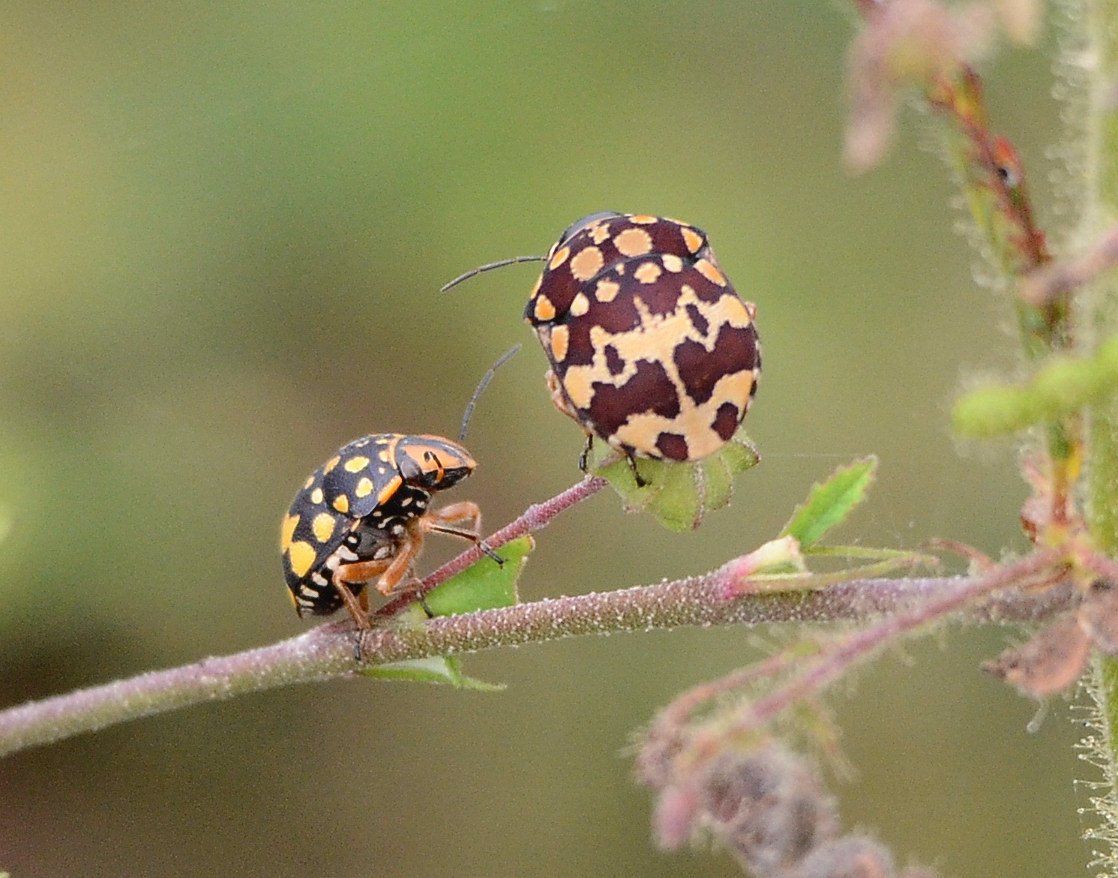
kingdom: Animalia
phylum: Arthropoda
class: Insecta
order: Hemiptera
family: Scutelleridae
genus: Orsilochides
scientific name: Orsilochides
